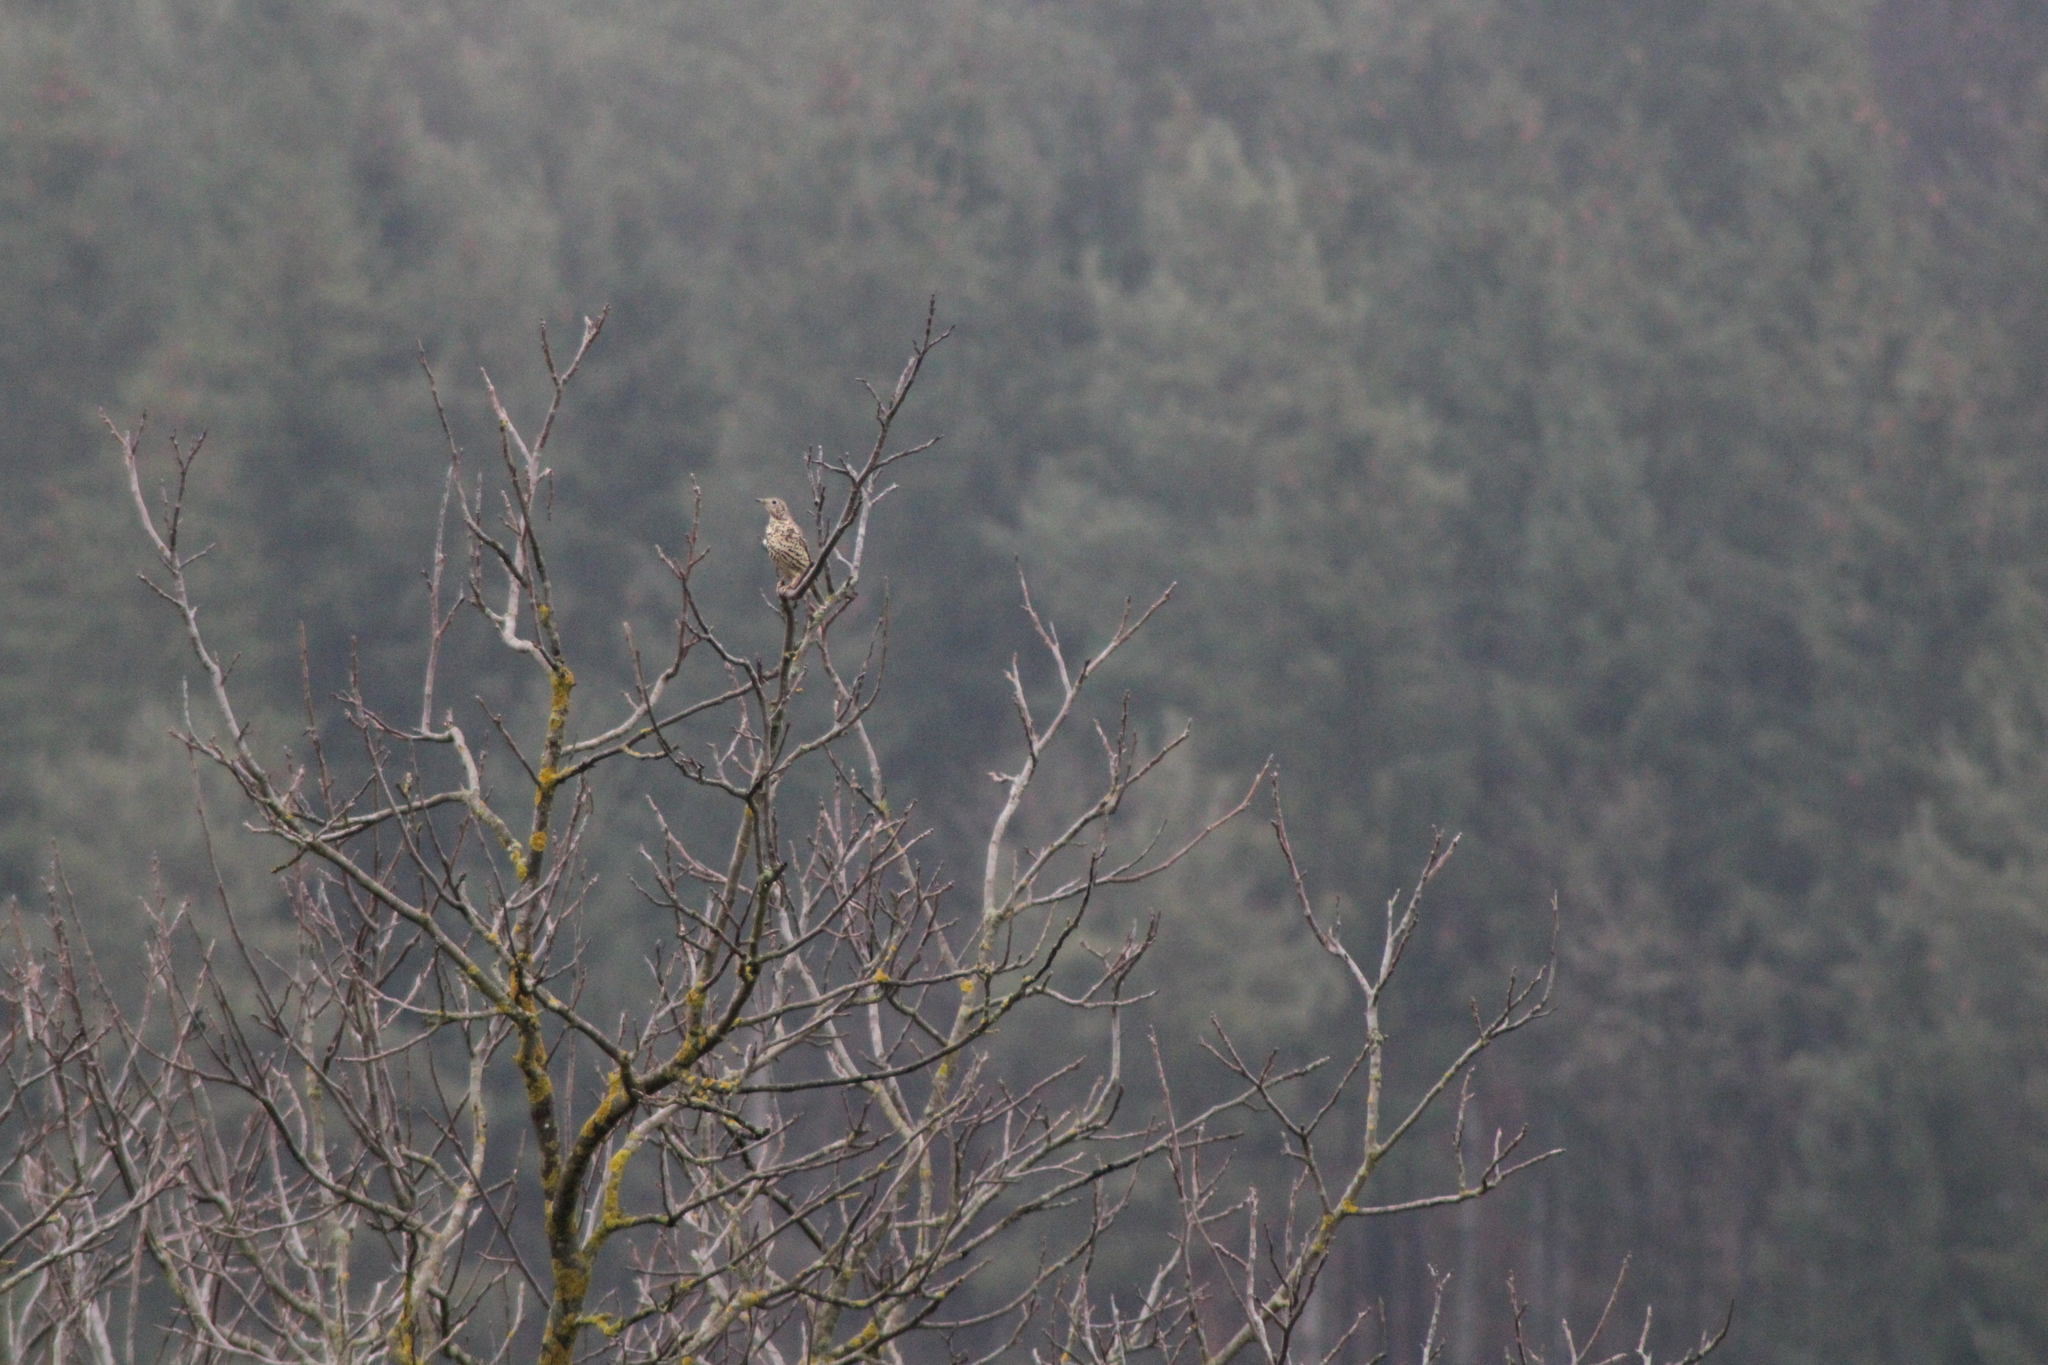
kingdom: Animalia
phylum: Chordata
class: Aves
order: Passeriformes
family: Turdidae
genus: Turdus
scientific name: Turdus viscivorus
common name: Mistle thrush
